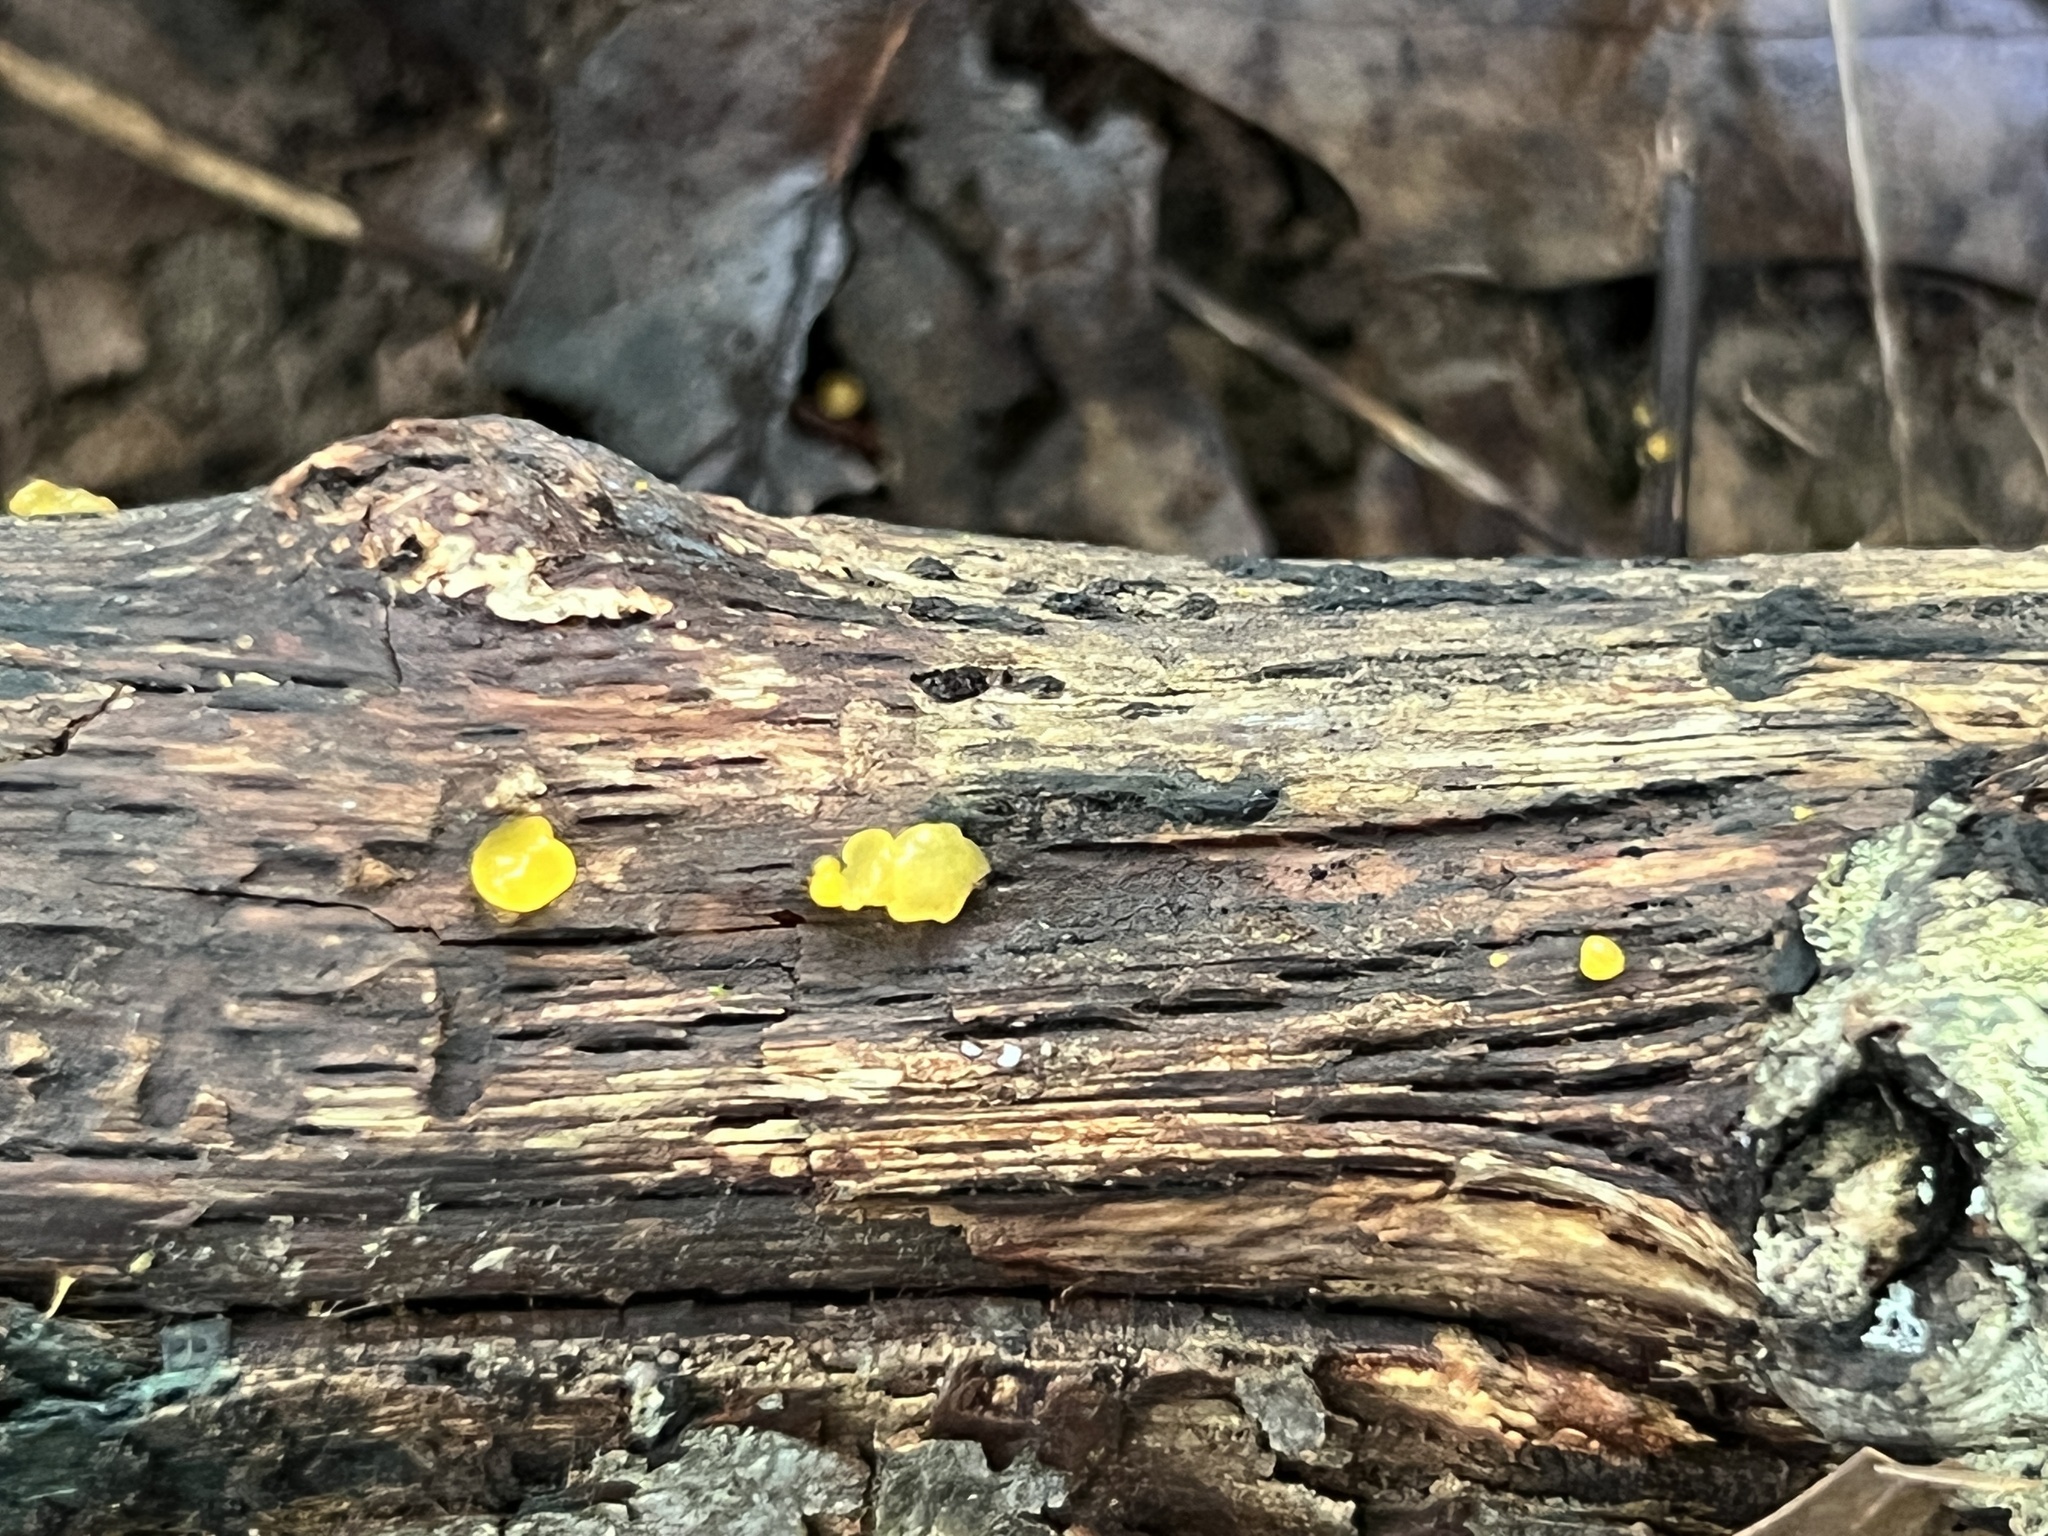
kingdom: Fungi
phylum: Basidiomycota
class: Dacrymycetes
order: Dacrymycetales
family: Dacrymycetaceae
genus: Dacrymyces
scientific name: Dacrymyces chrysospermus
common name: Orange jelly spot
